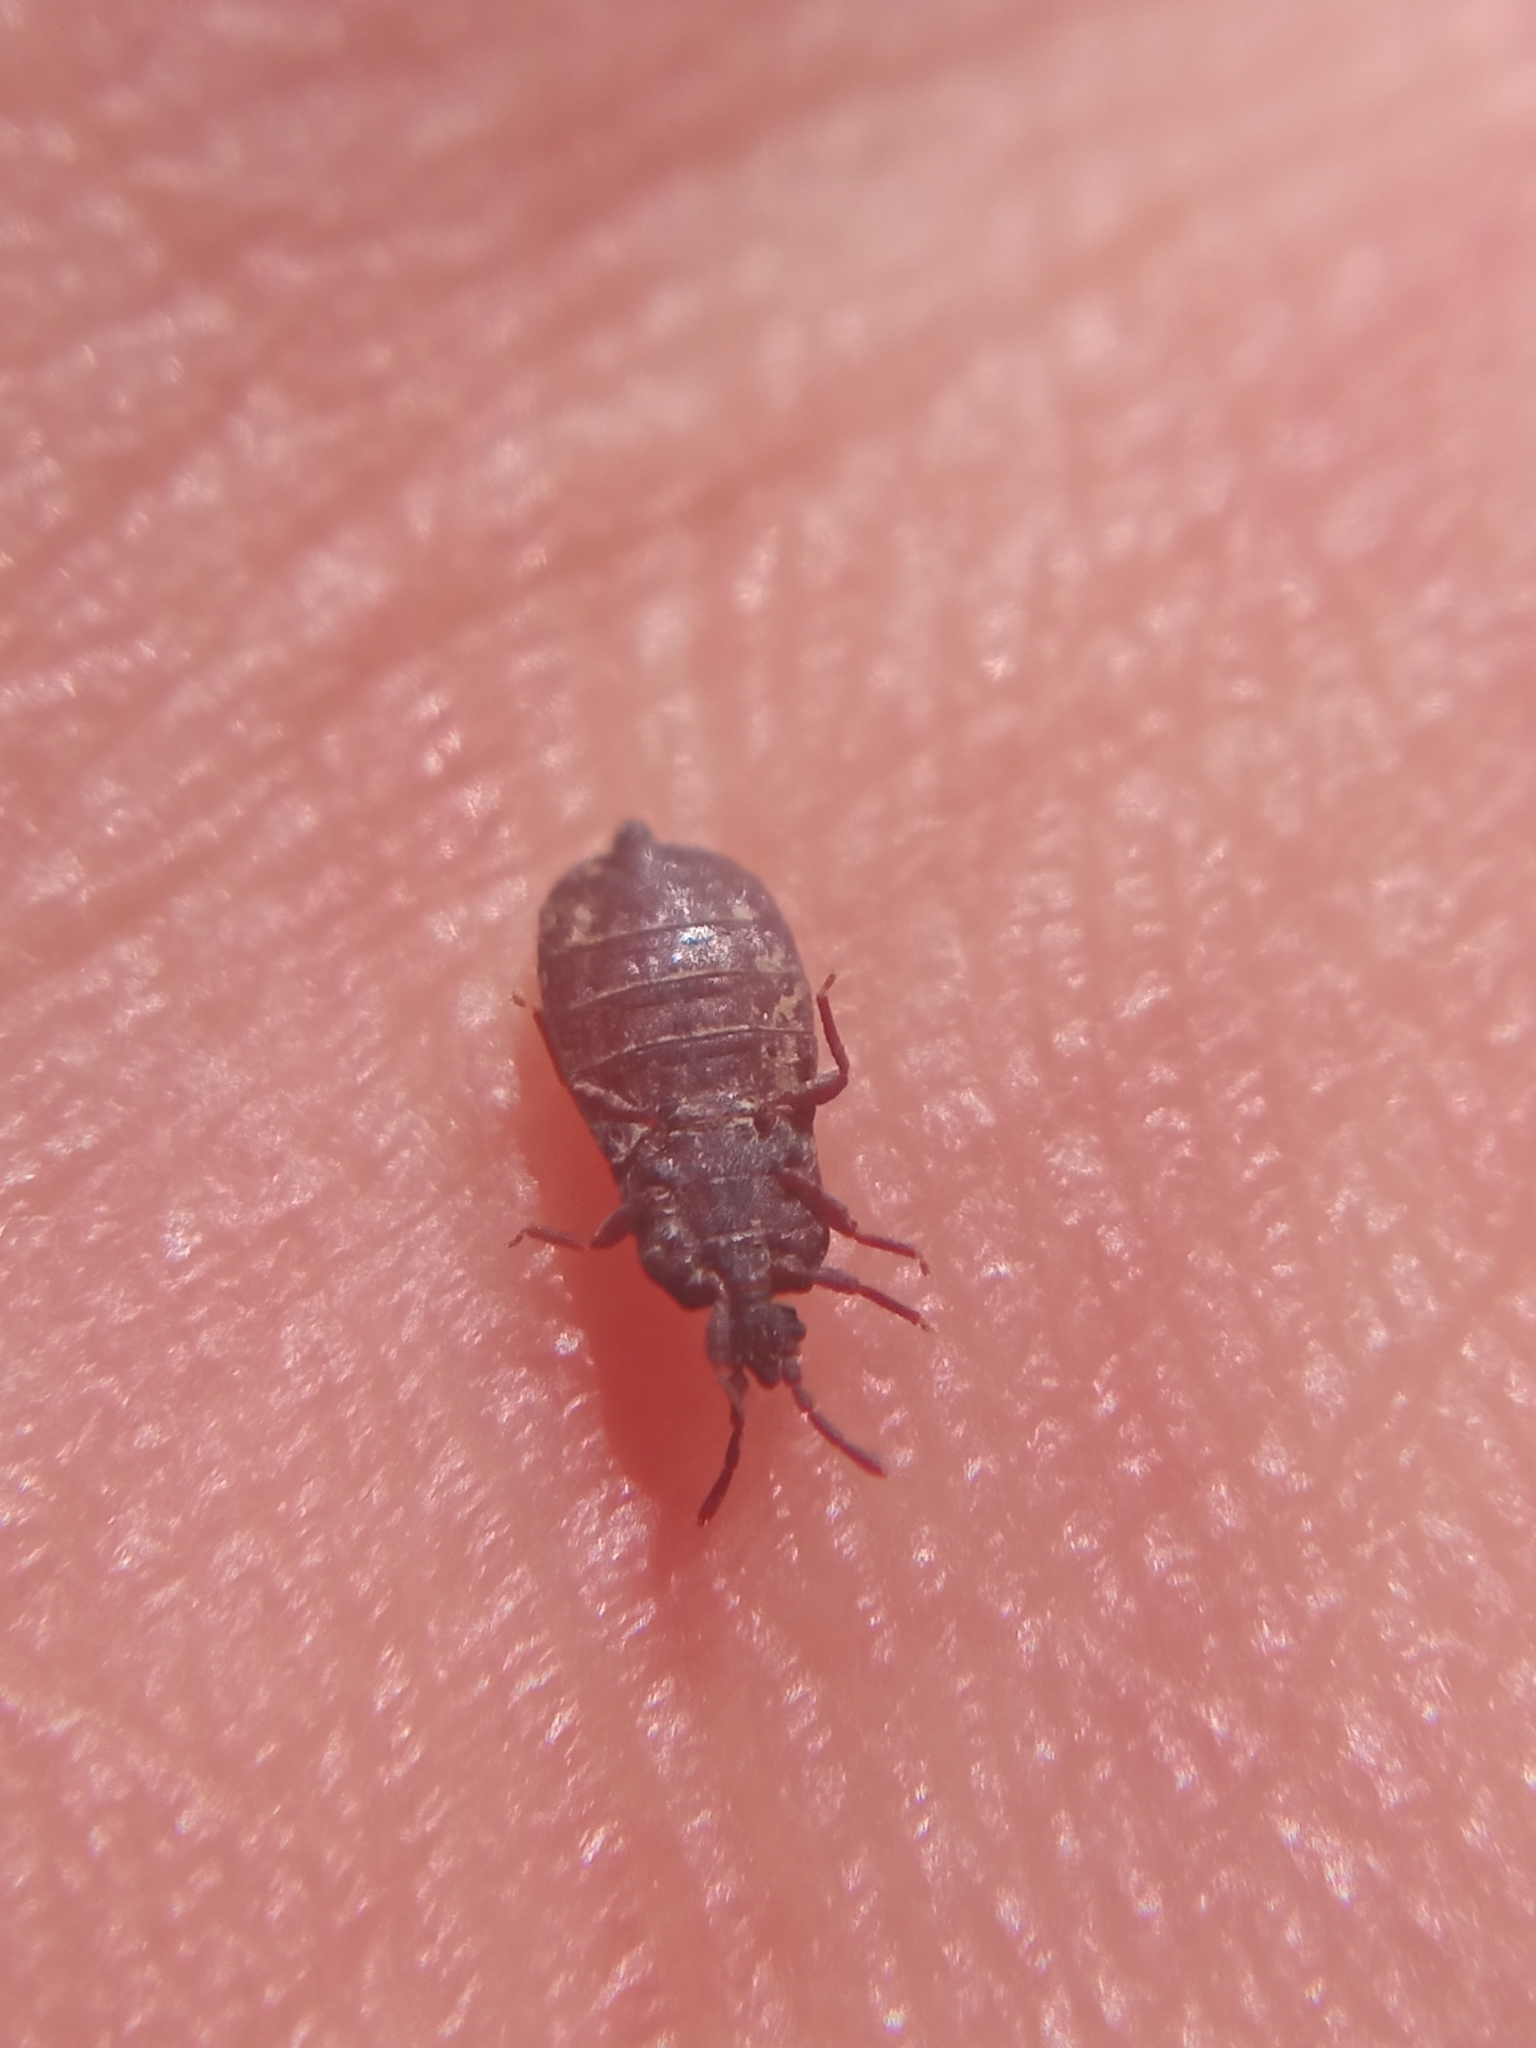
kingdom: Animalia
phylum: Arthropoda
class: Insecta
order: Hemiptera
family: Aradidae
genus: Aneurus
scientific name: Aneurus laevis
